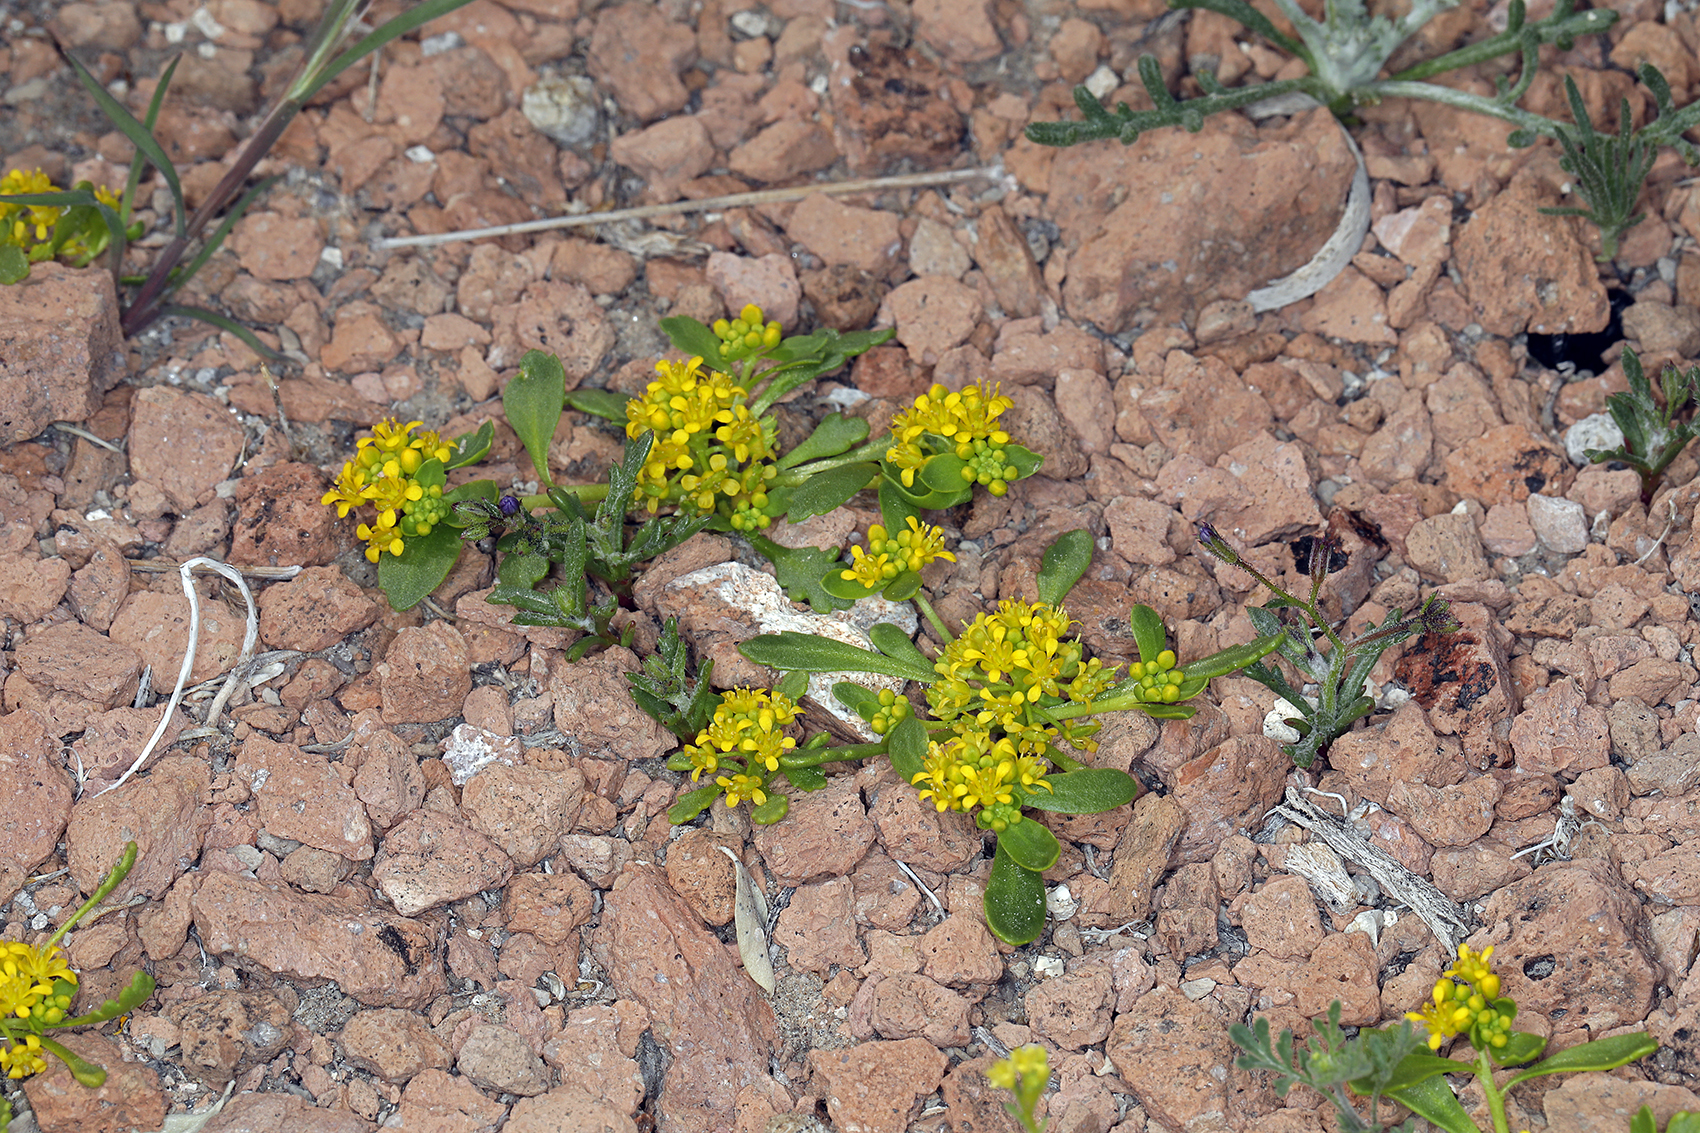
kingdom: Plantae
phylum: Tracheophyta
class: Magnoliopsida
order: Brassicales
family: Brassicaceae
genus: Lepidium
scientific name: Lepidium flavum
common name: Yellow pepperwort
